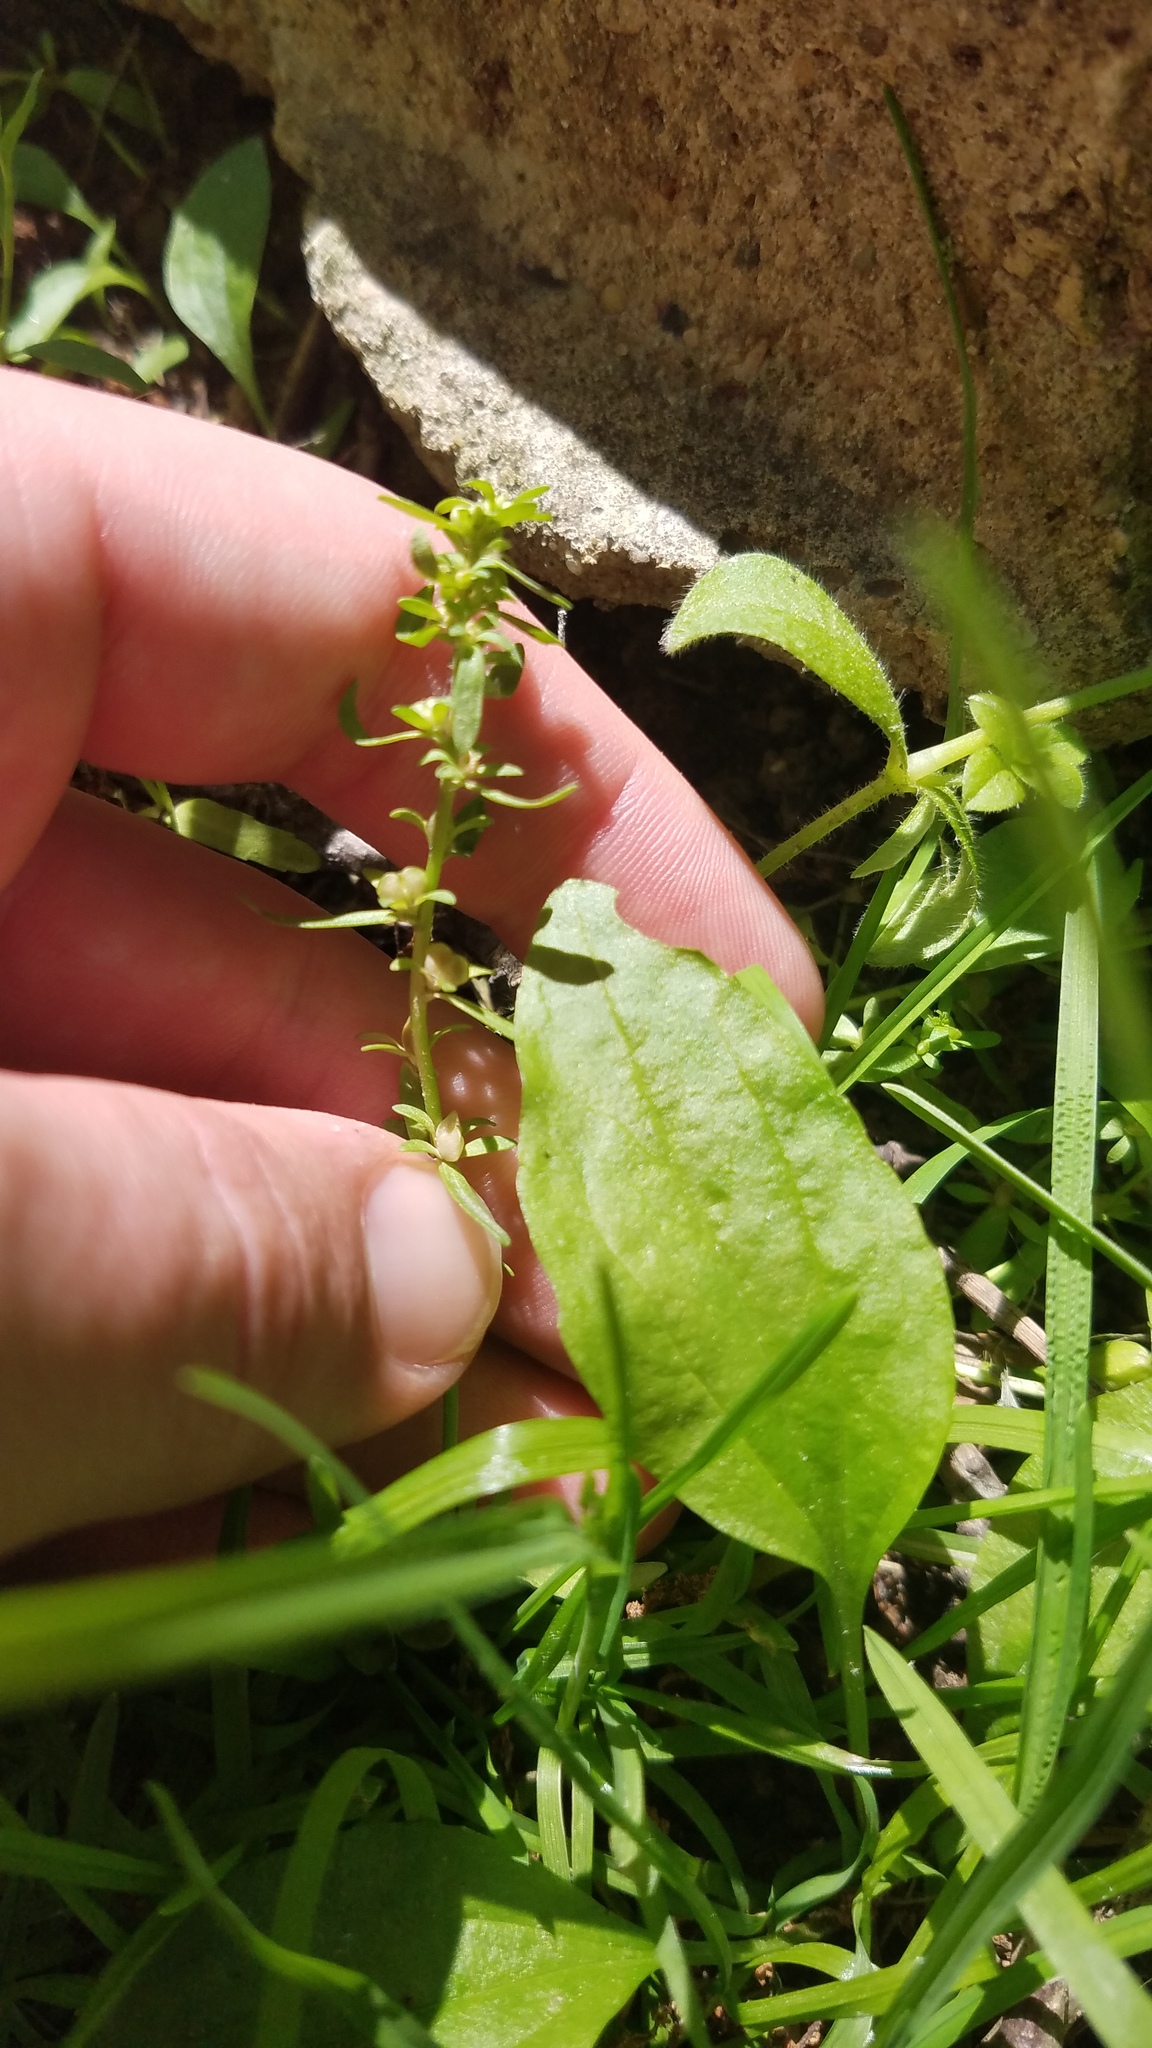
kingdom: Plantae
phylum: Tracheophyta
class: Magnoliopsida
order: Lamiales
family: Plantaginaceae
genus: Veronica
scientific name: Veronica peregrina
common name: Neckweed
